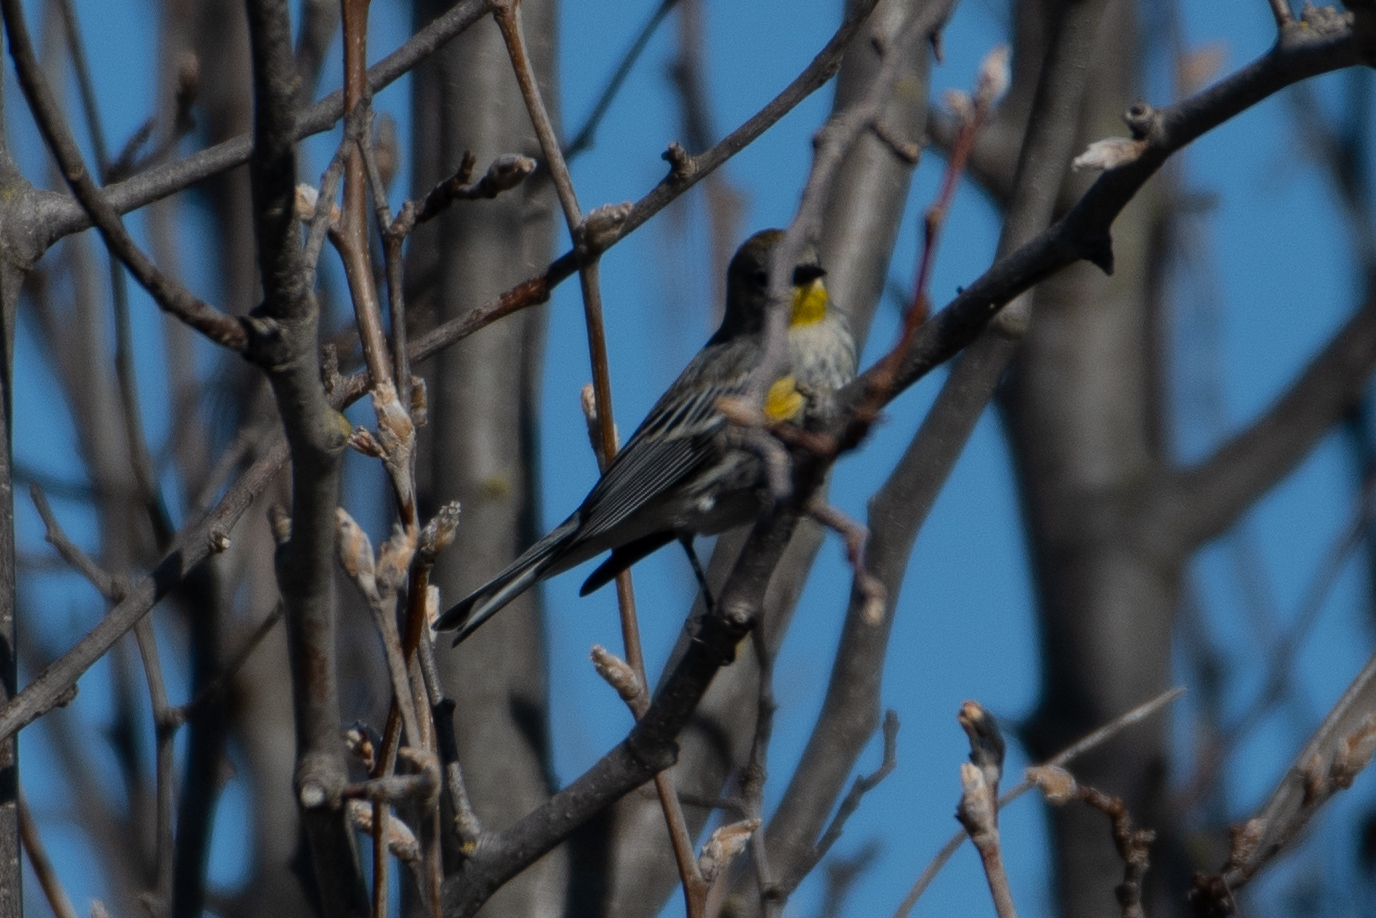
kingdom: Animalia
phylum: Chordata
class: Aves
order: Passeriformes
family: Parulidae
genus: Setophaga
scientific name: Setophaga coronata
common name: Myrtle warbler
